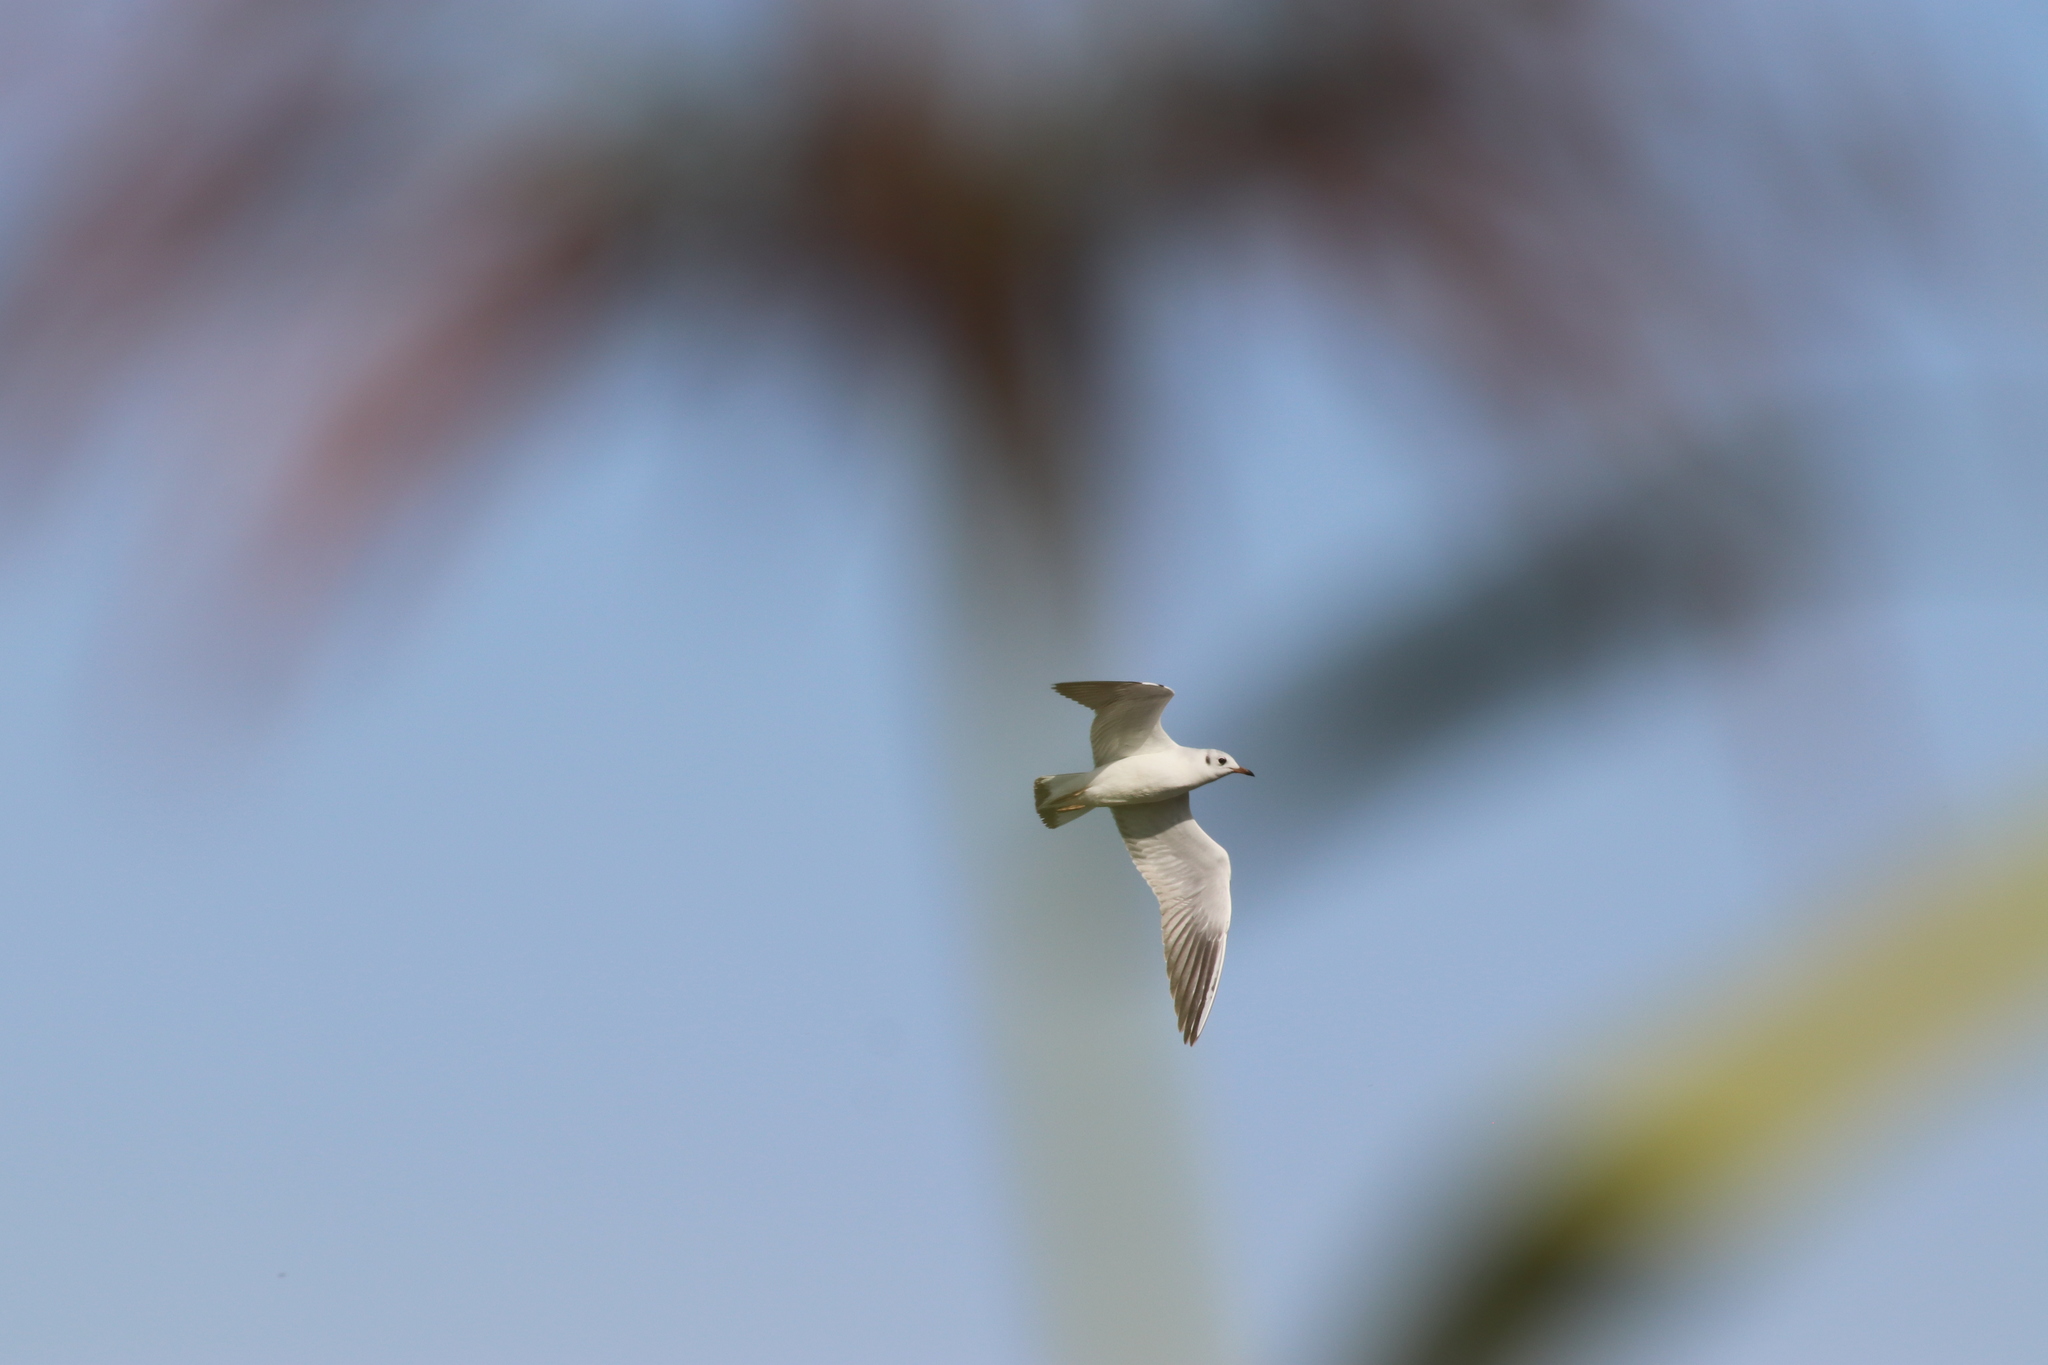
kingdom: Animalia
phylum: Chordata
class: Aves
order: Charadriiformes
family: Laridae
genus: Chroicocephalus
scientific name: Chroicocephalus ridibundus
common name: Black-headed gull
